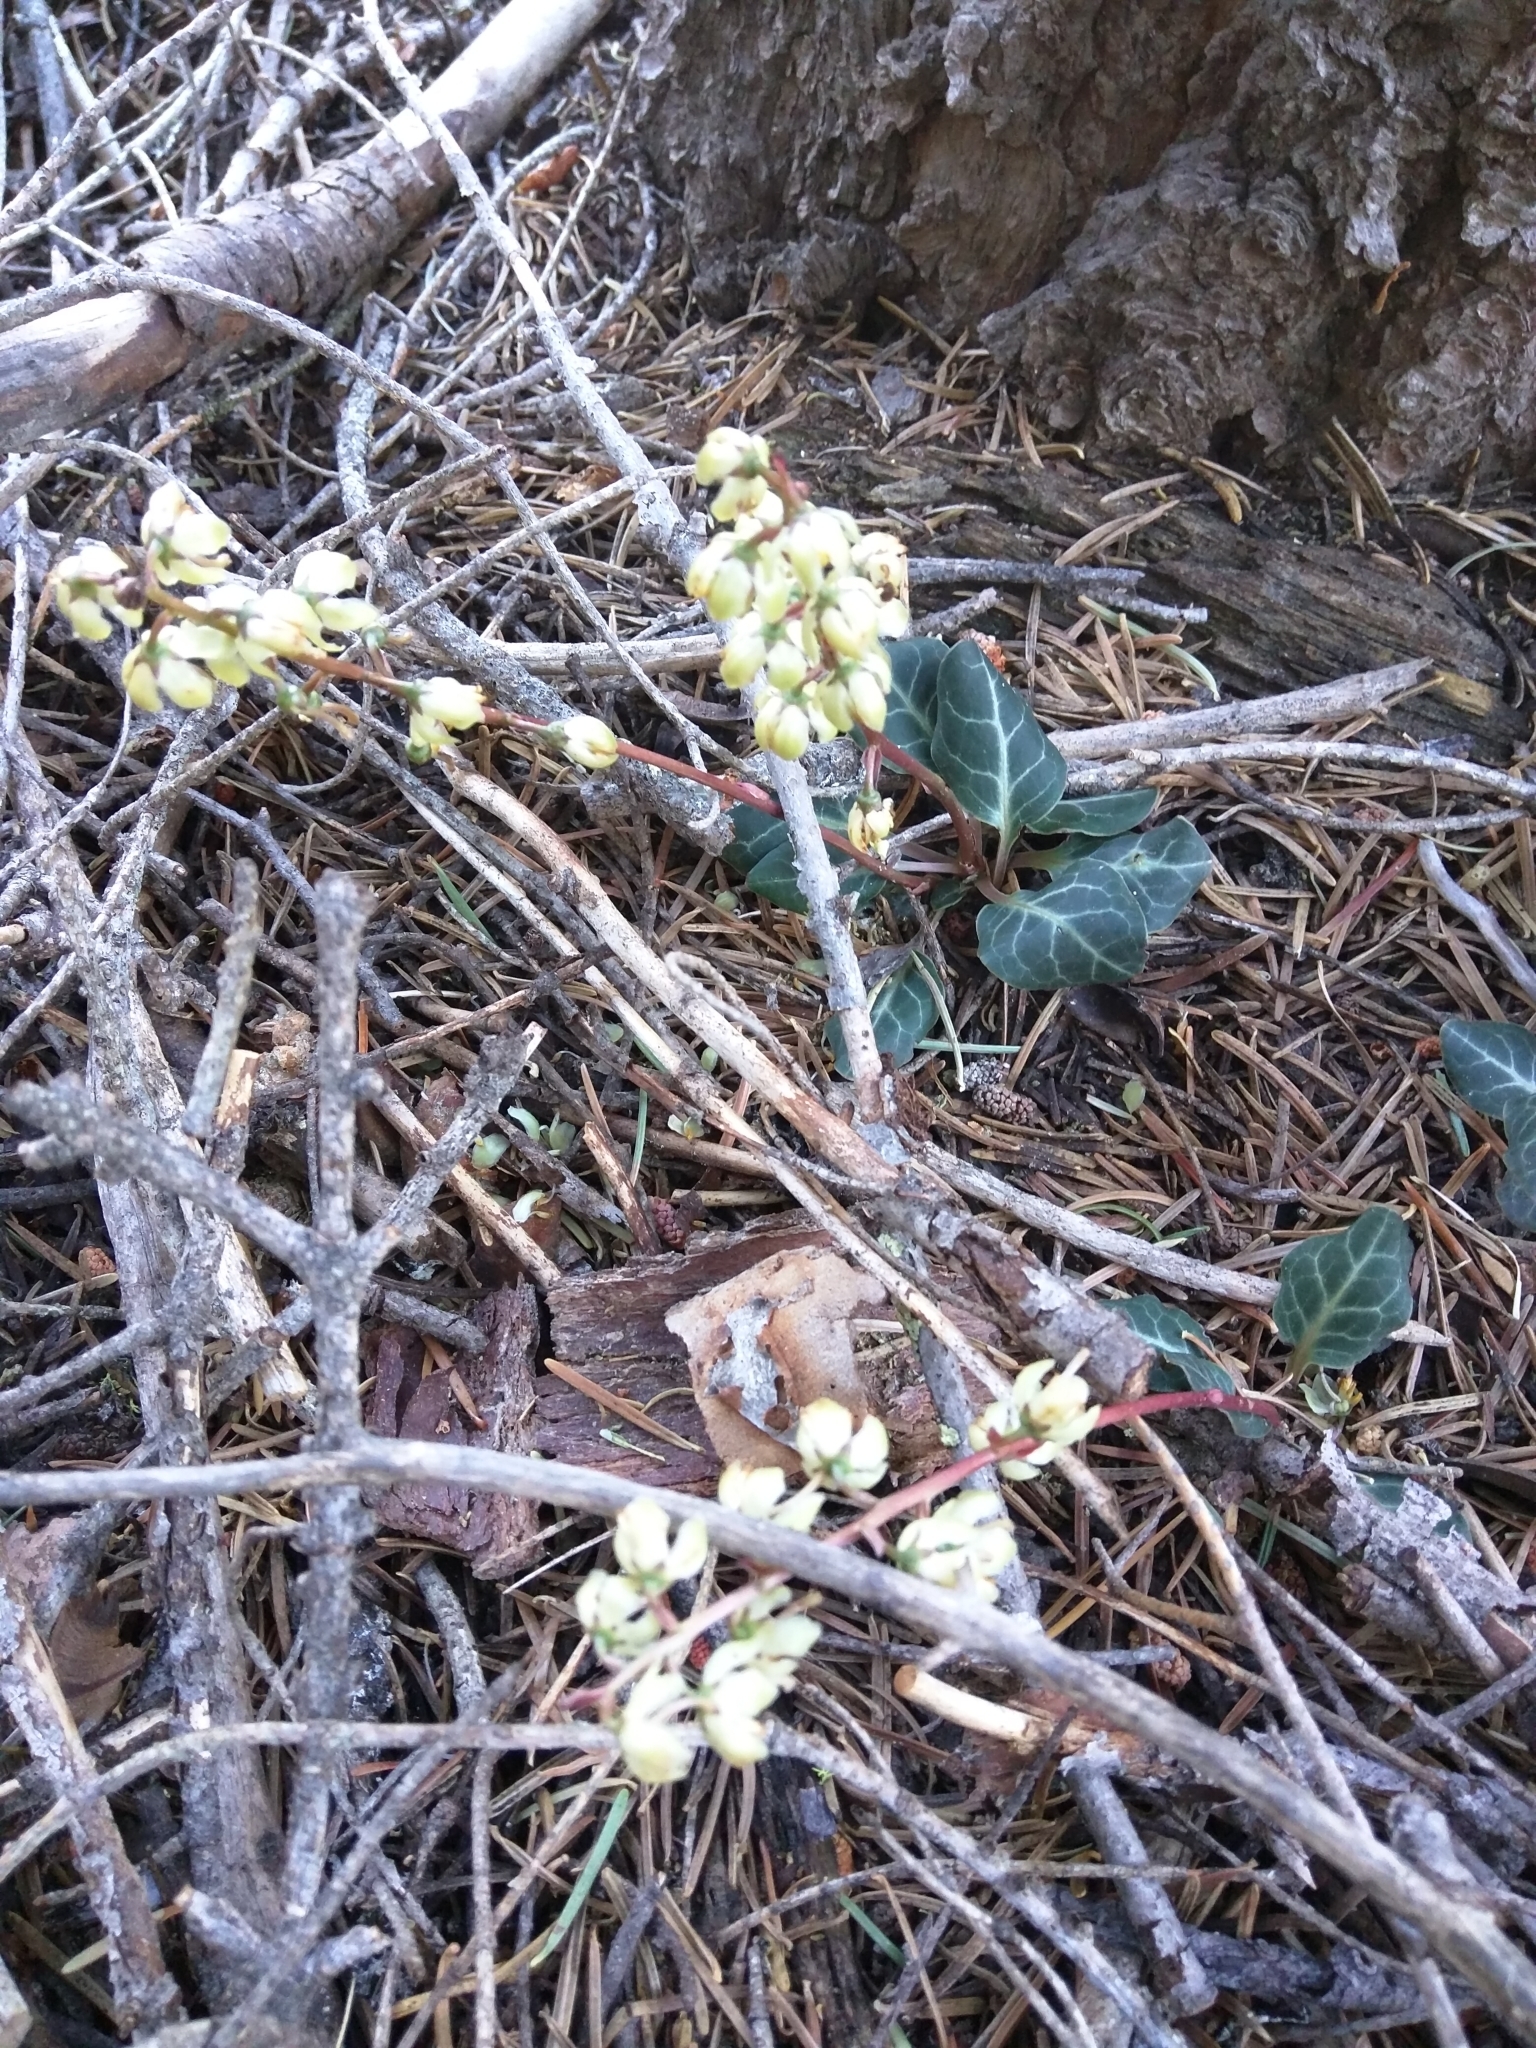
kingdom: Plantae
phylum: Tracheophyta
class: Magnoliopsida
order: Ericales
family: Ericaceae
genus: Pyrola
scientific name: Pyrola picta
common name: White-vein wintergreen
